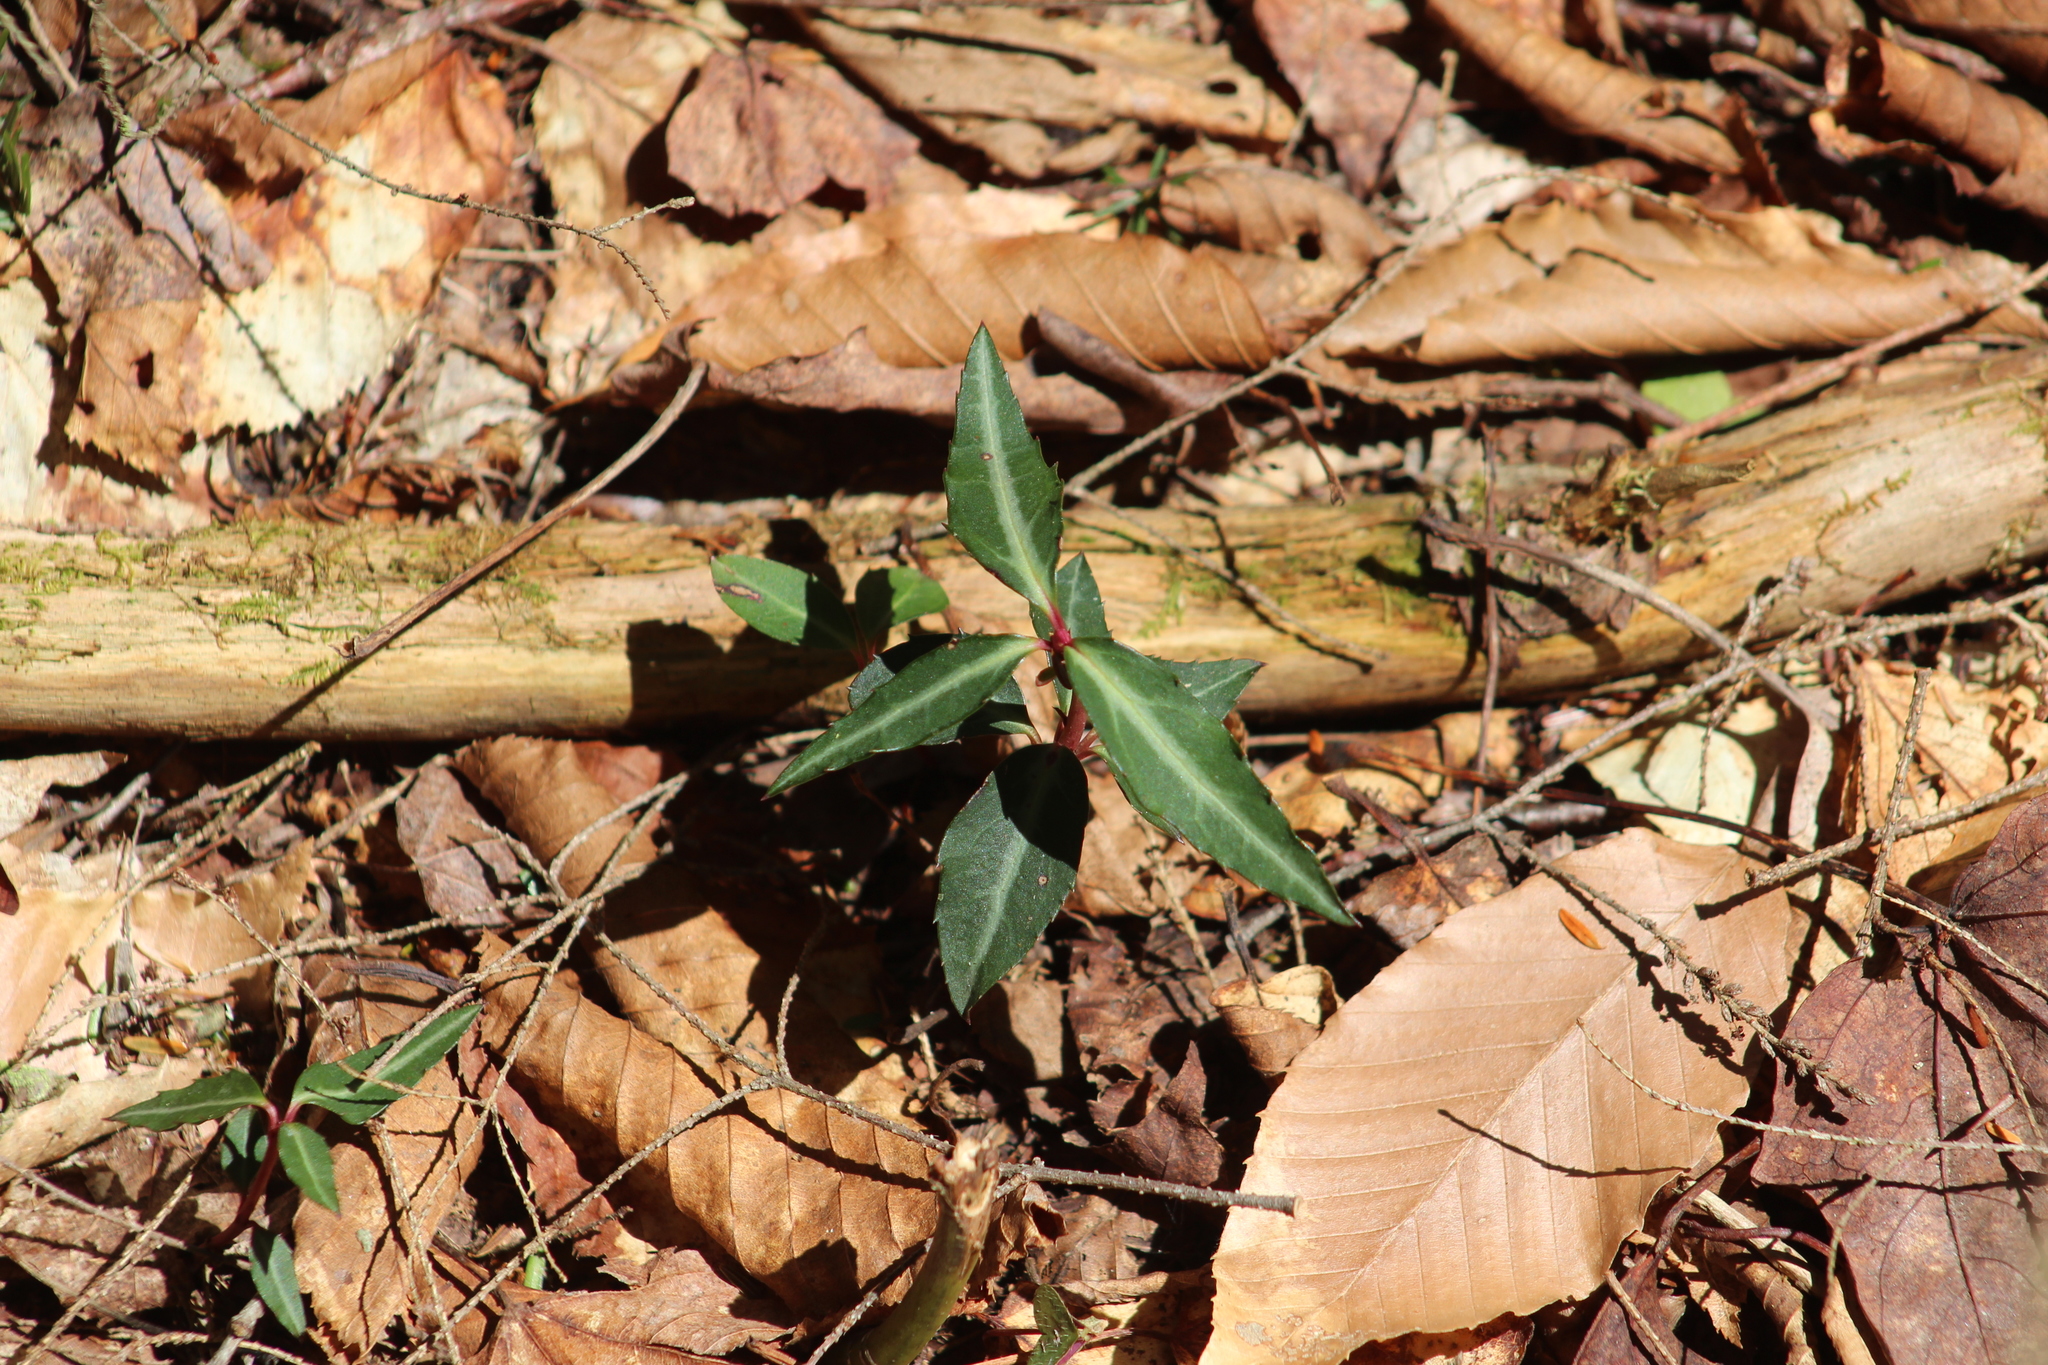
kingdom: Plantae
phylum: Tracheophyta
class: Magnoliopsida
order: Ericales
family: Ericaceae
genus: Chimaphila
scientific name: Chimaphila maculata
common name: Spotted pipsissewa
